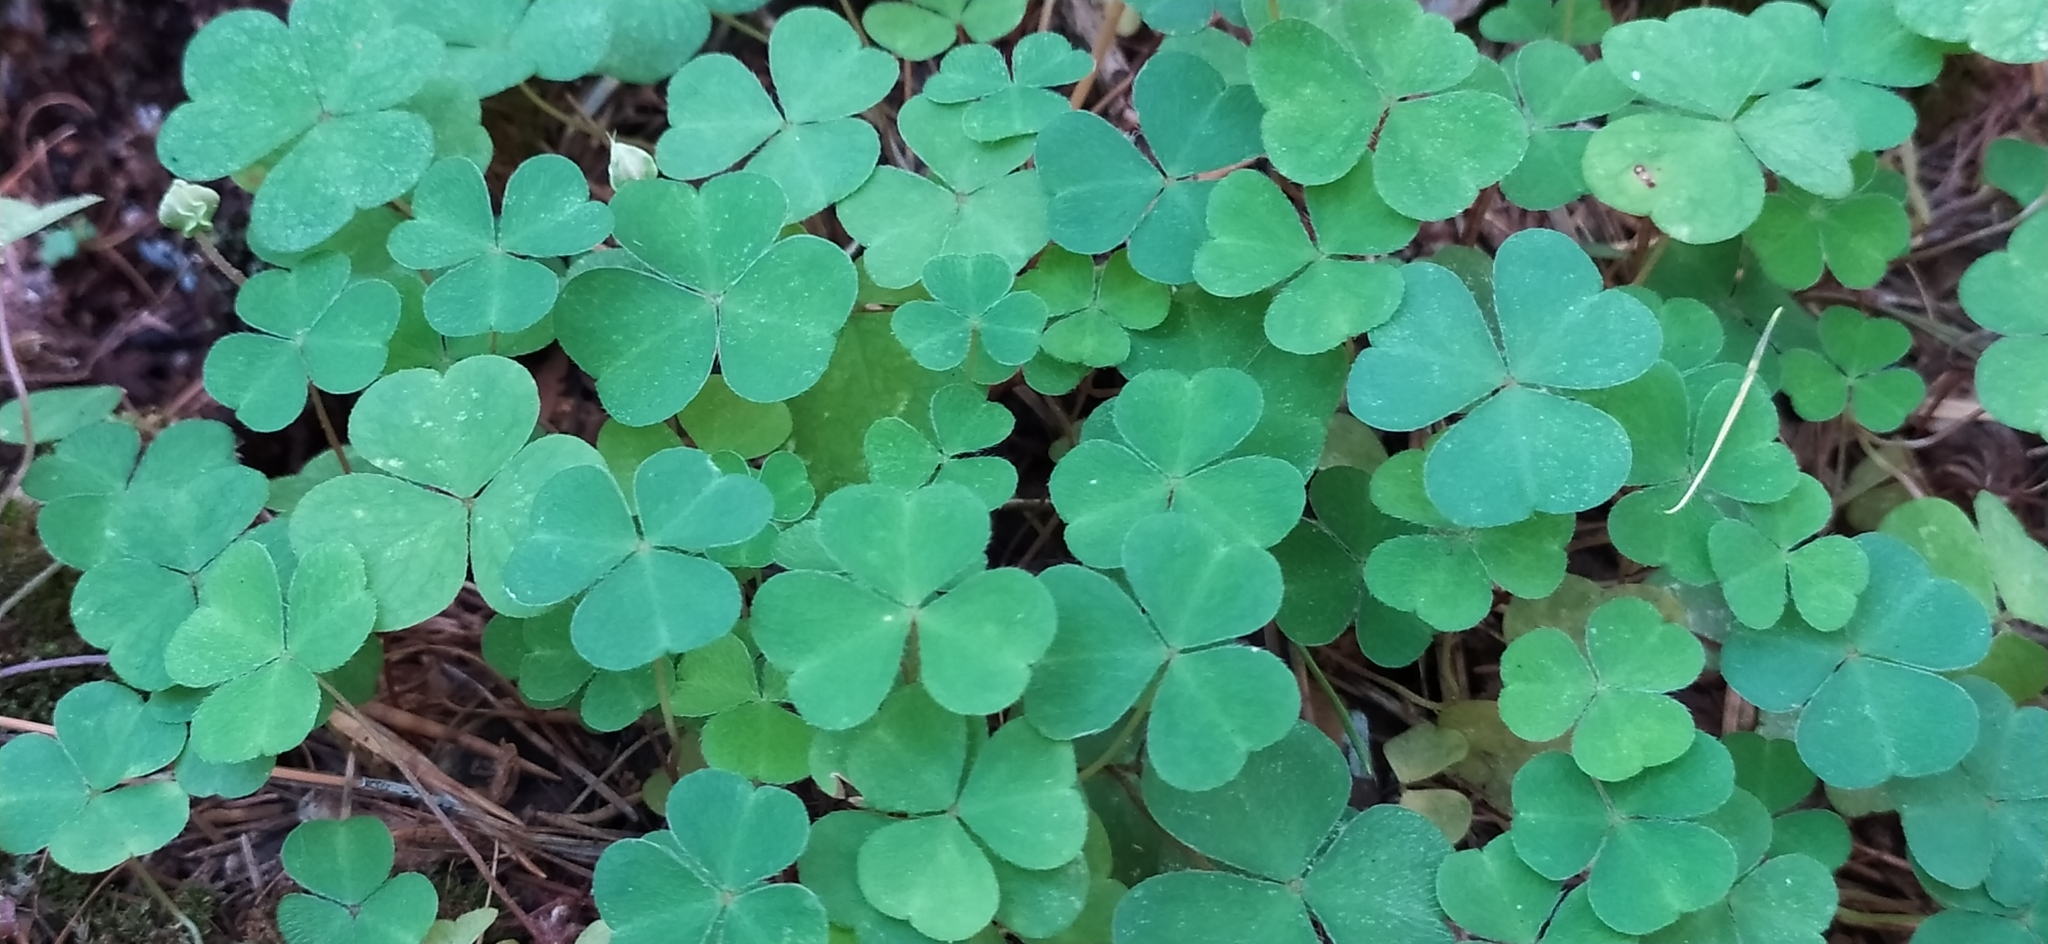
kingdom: Plantae
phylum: Tracheophyta
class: Magnoliopsida
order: Oxalidales
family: Oxalidaceae
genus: Oxalis
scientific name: Oxalis acetosella
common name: Wood-sorrel
